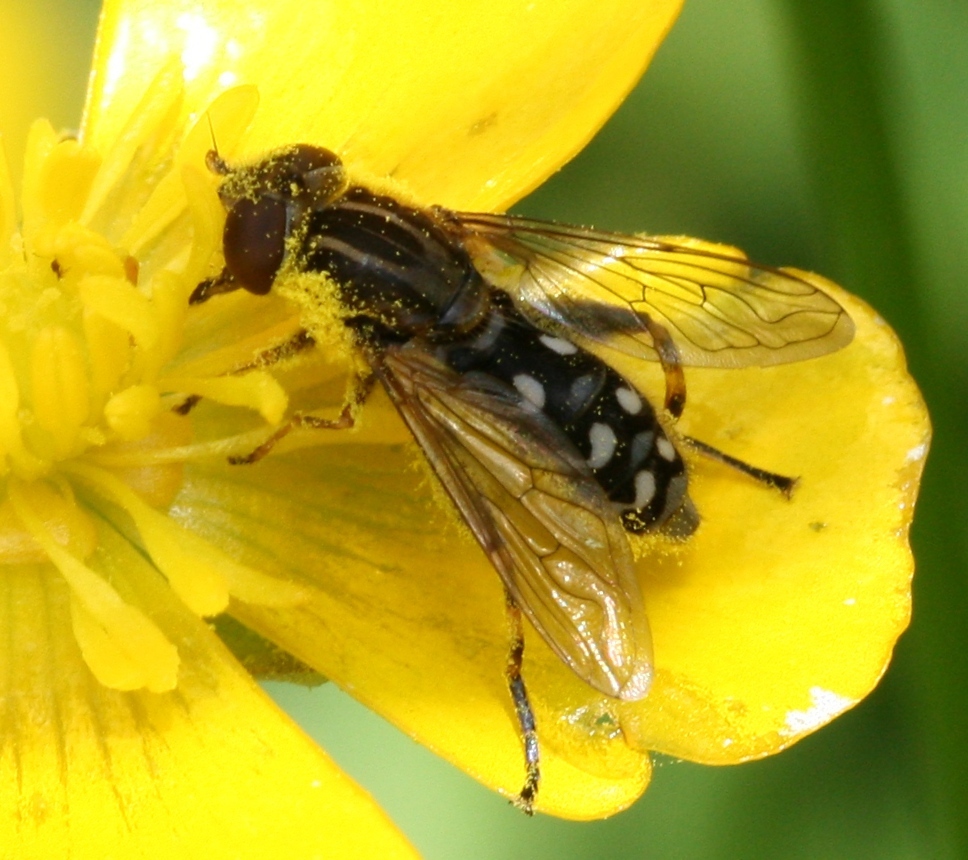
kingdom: Animalia
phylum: Arthropoda
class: Insecta
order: Diptera
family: Syrphidae
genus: Anasimyia
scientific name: Anasimyia contracta
